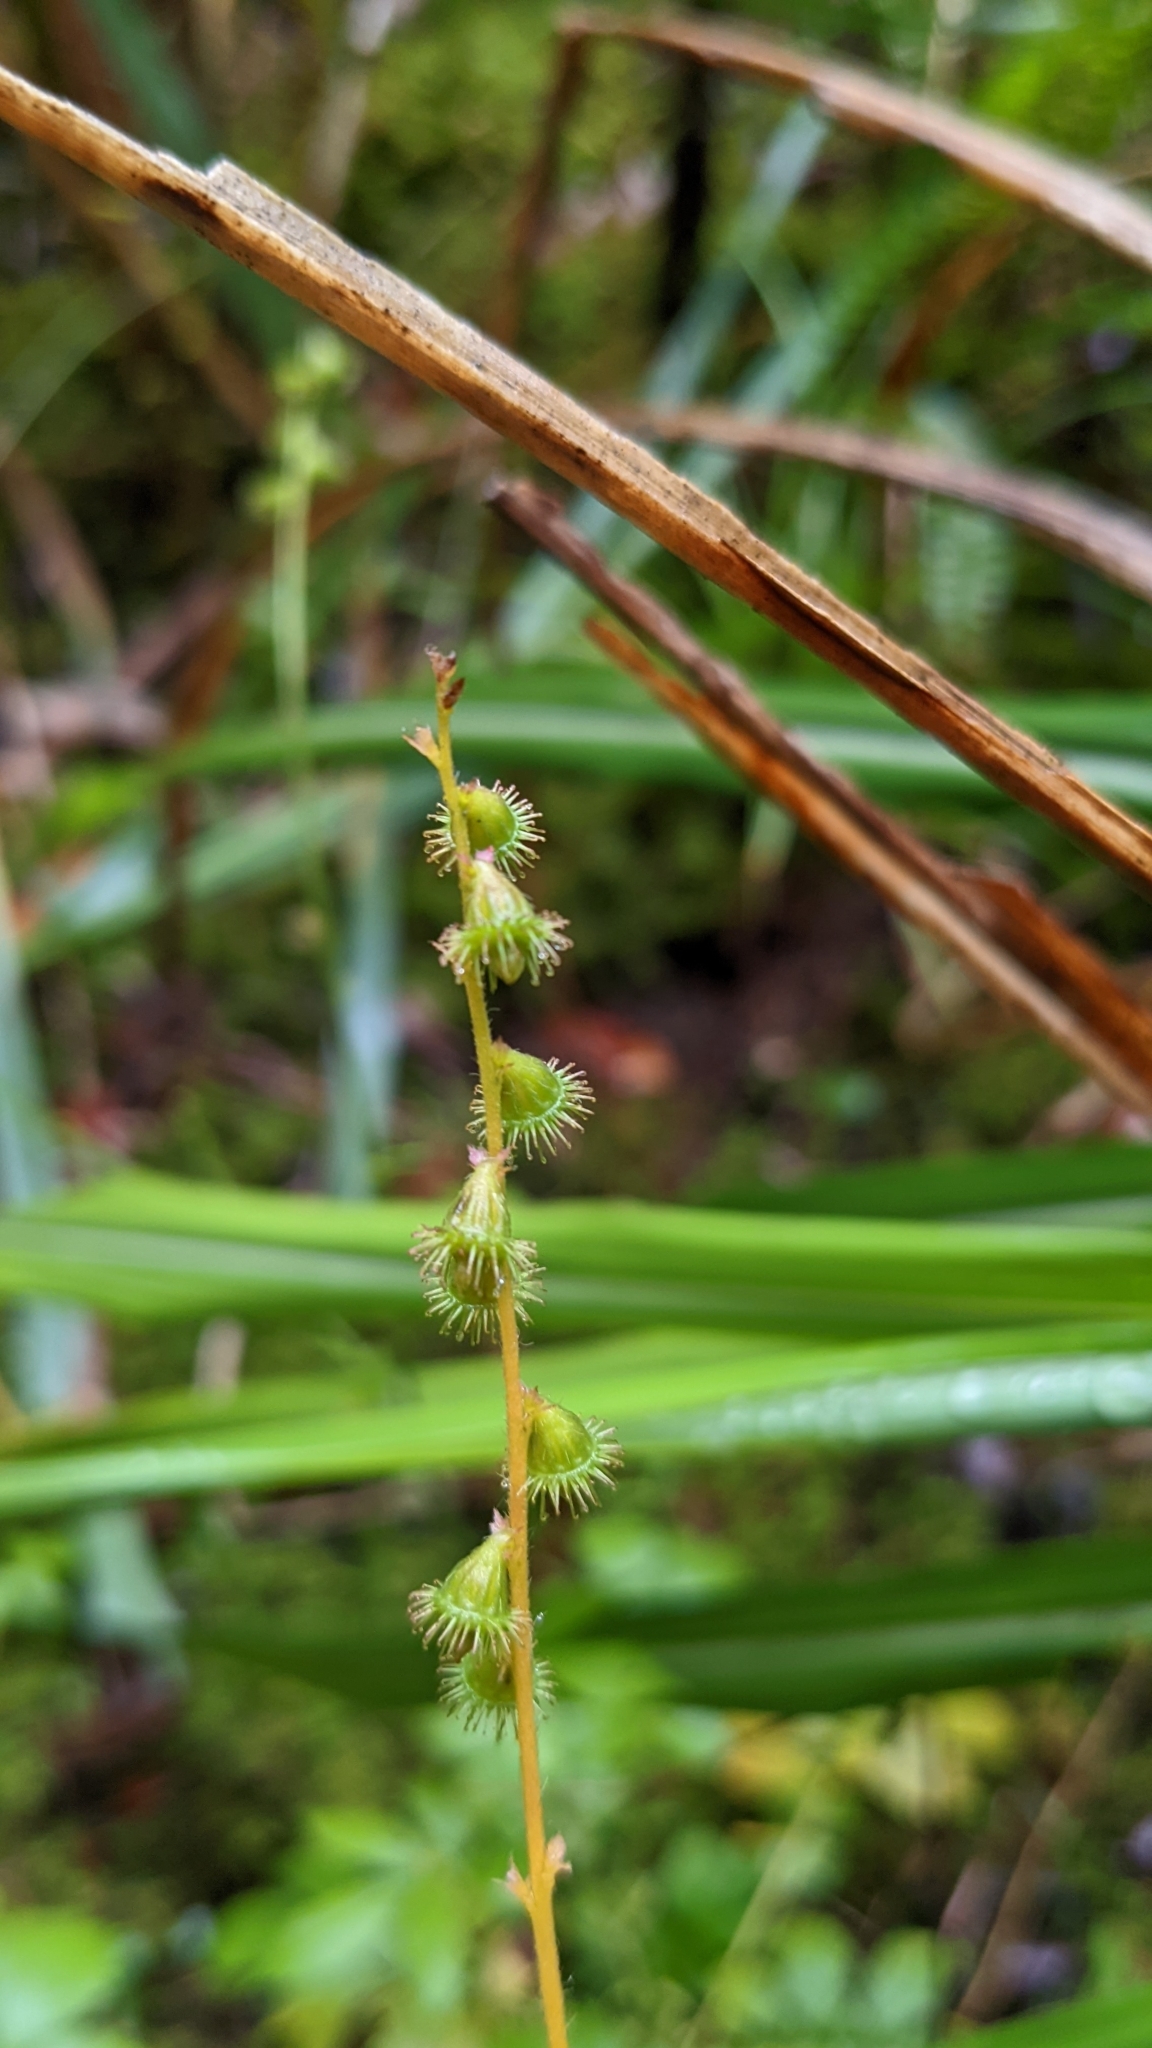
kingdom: Plantae
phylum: Tracheophyta
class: Magnoliopsida
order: Rosales
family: Rosaceae
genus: Agrimonia
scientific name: Agrimonia pilosa
